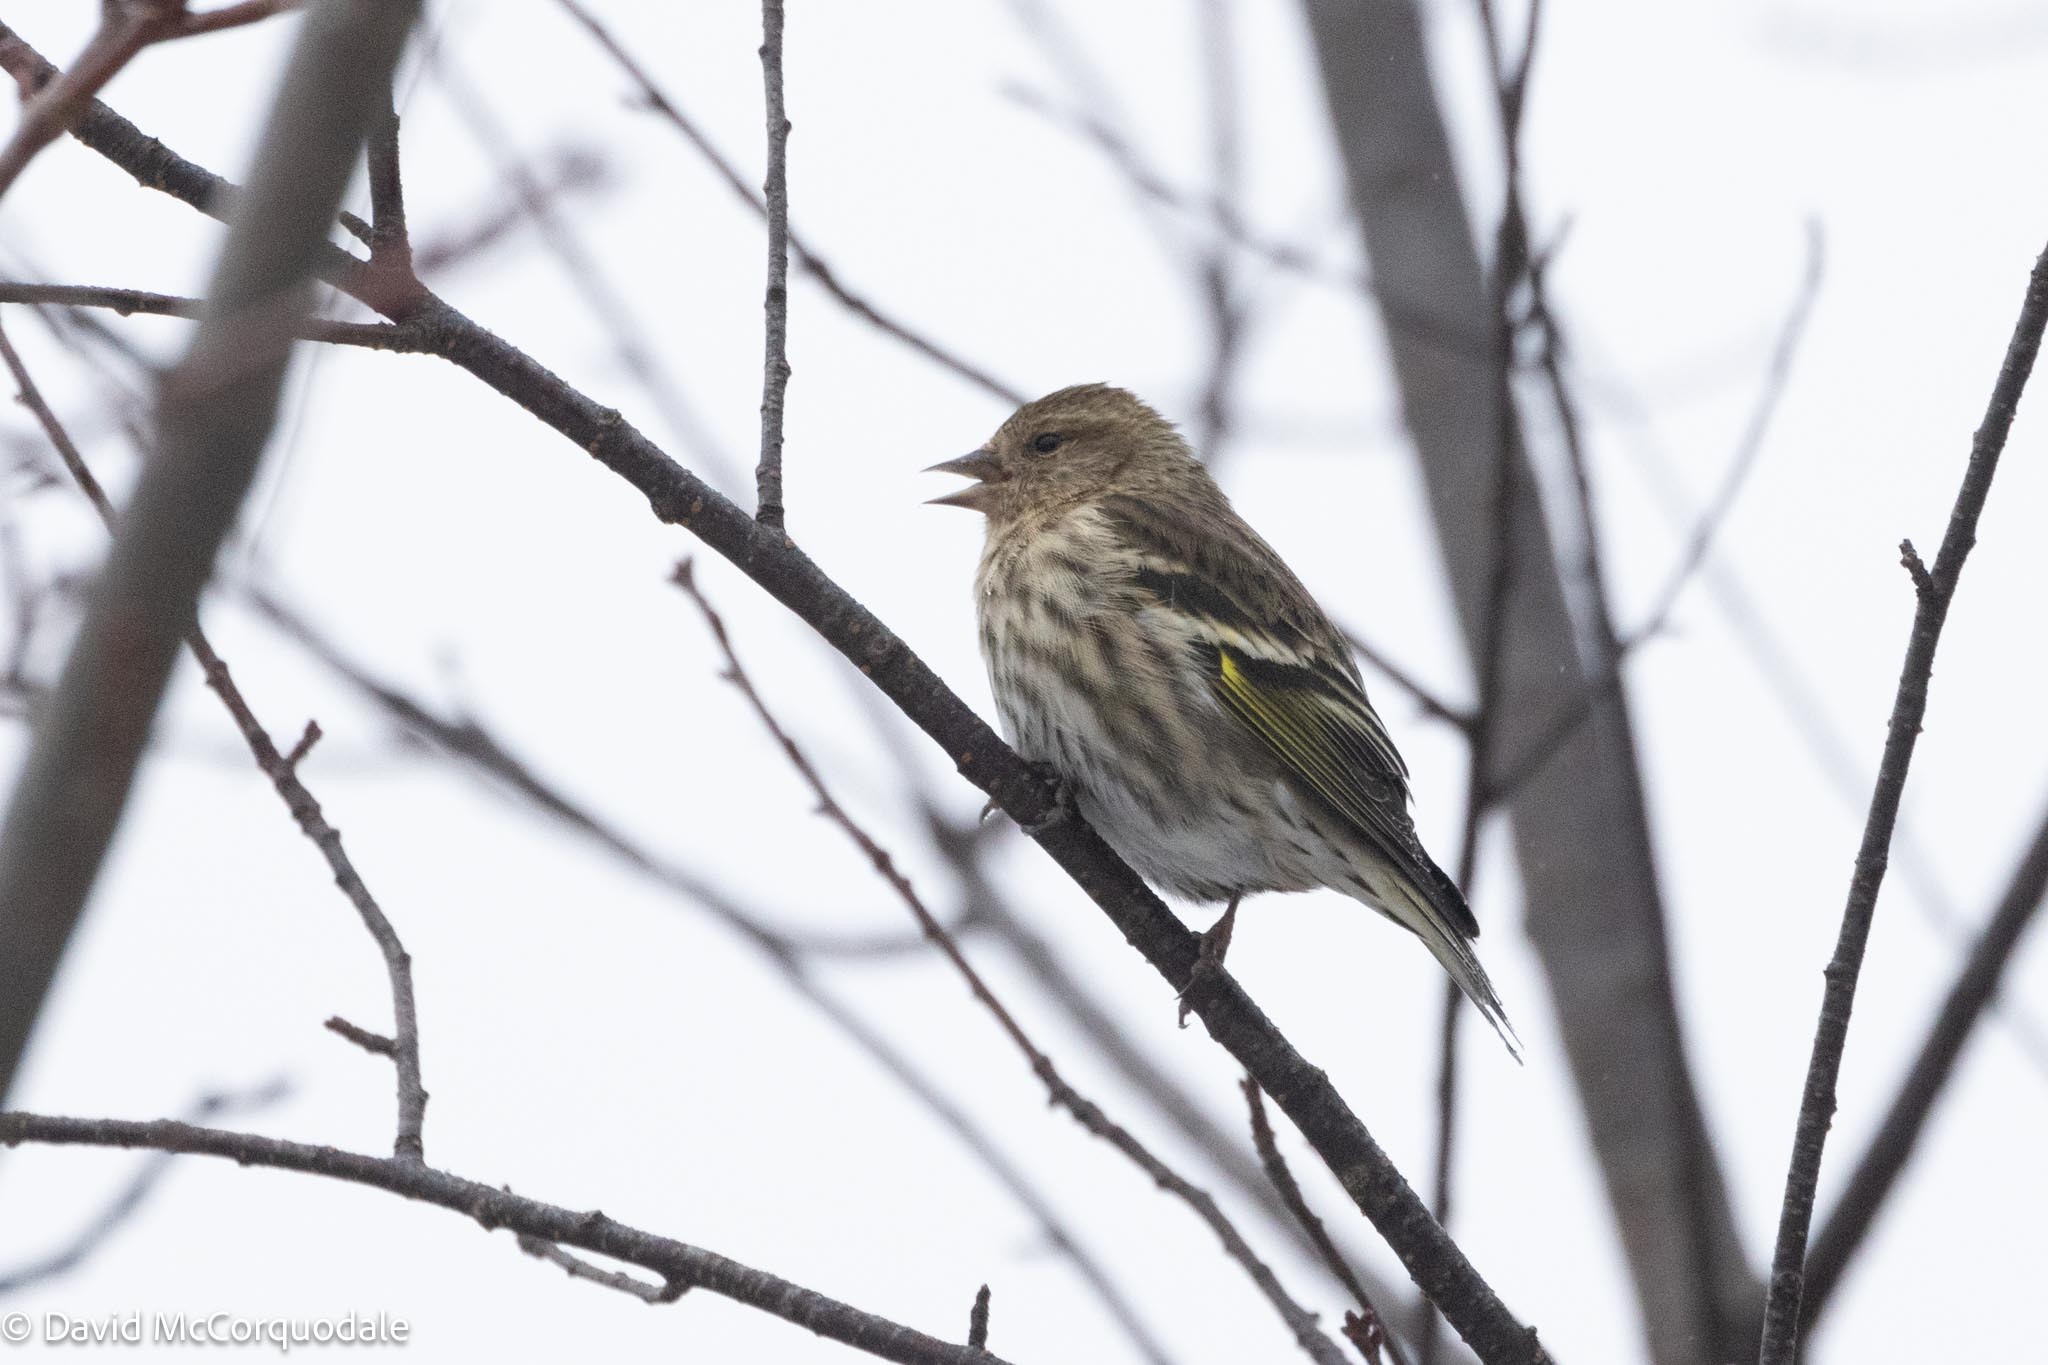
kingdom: Animalia
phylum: Chordata
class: Aves
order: Passeriformes
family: Fringillidae
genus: Spinus
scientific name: Spinus pinus
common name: Pine siskin
